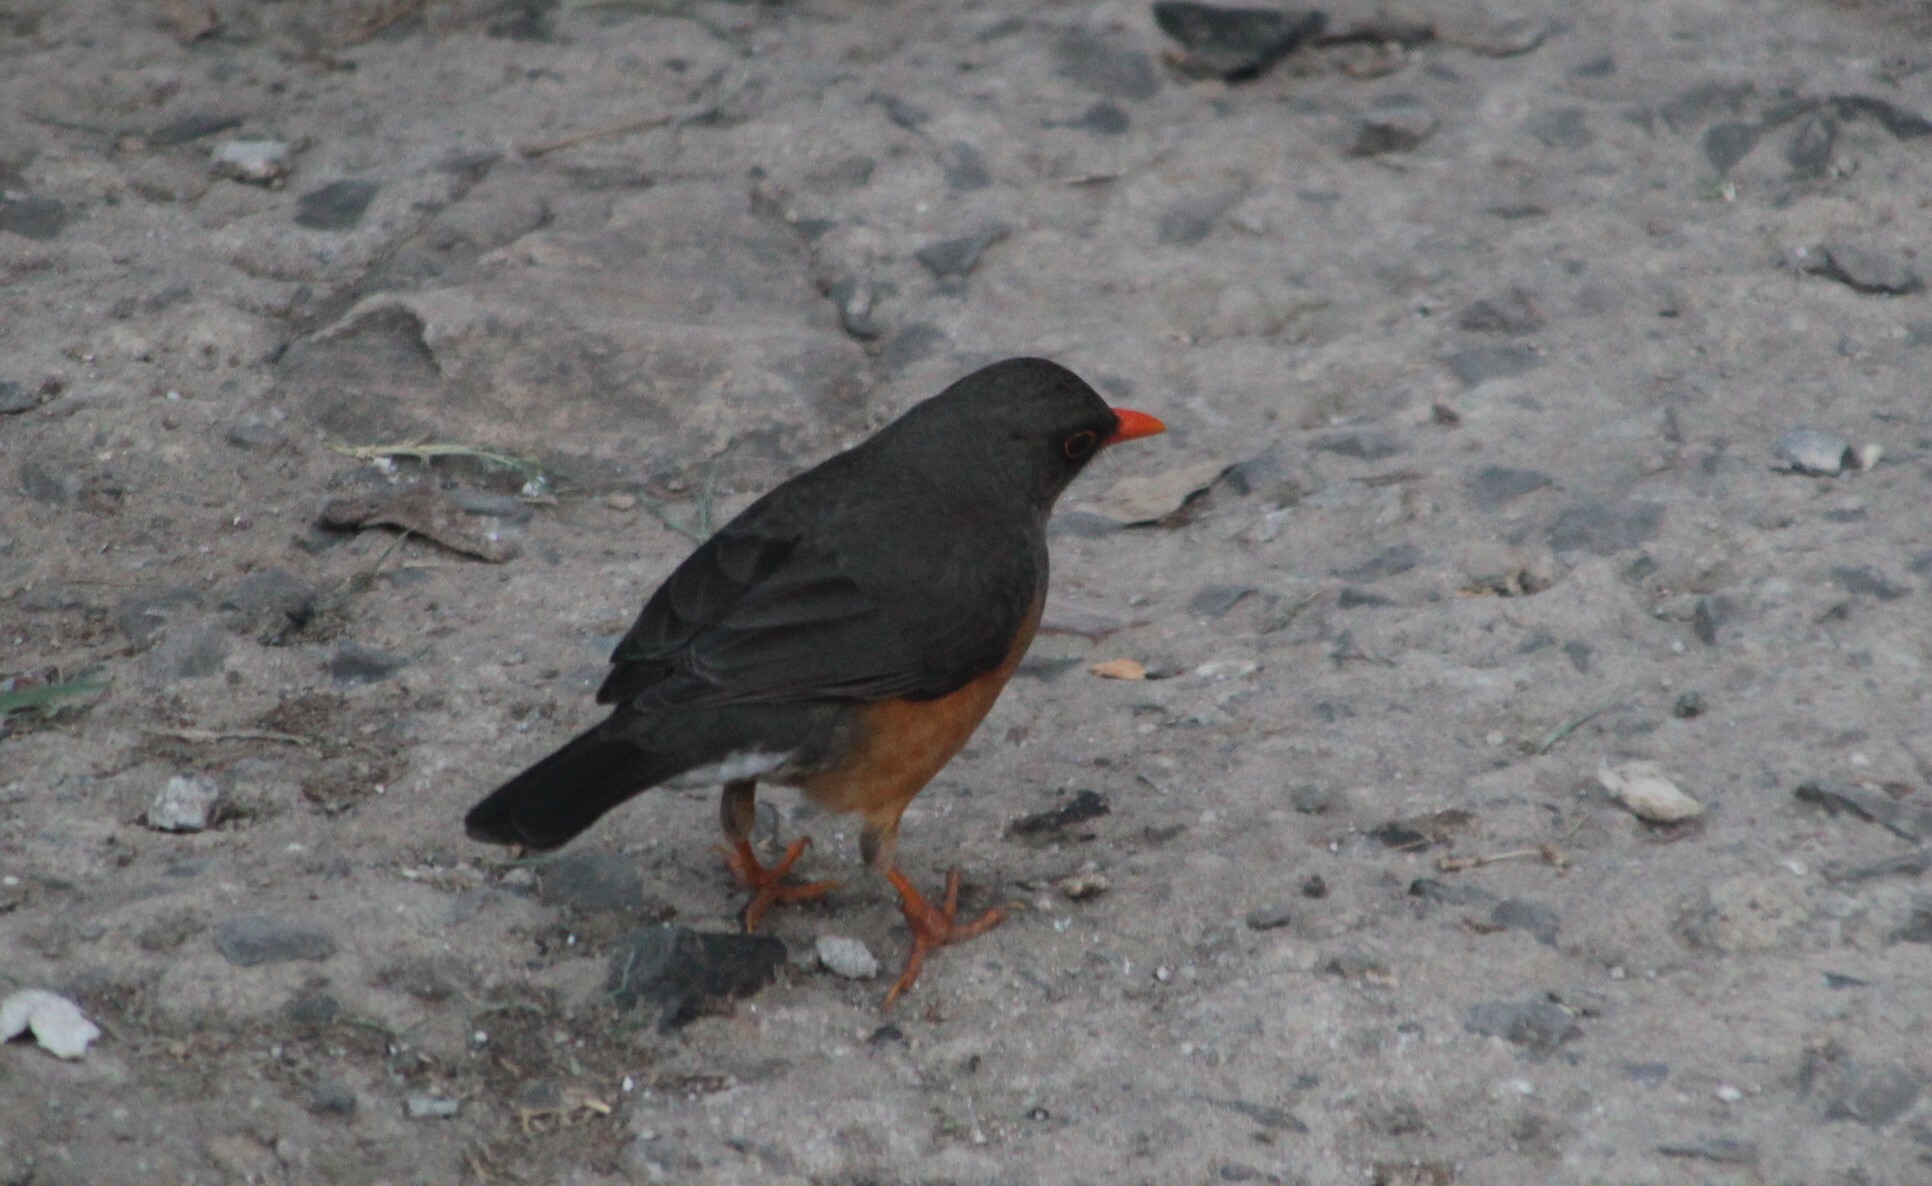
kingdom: Animalia
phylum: Chordata
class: Aves
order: Passeriformes
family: Turdidae
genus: Turdus
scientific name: Turdus abyssinicus
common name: Abyssinian thrush
